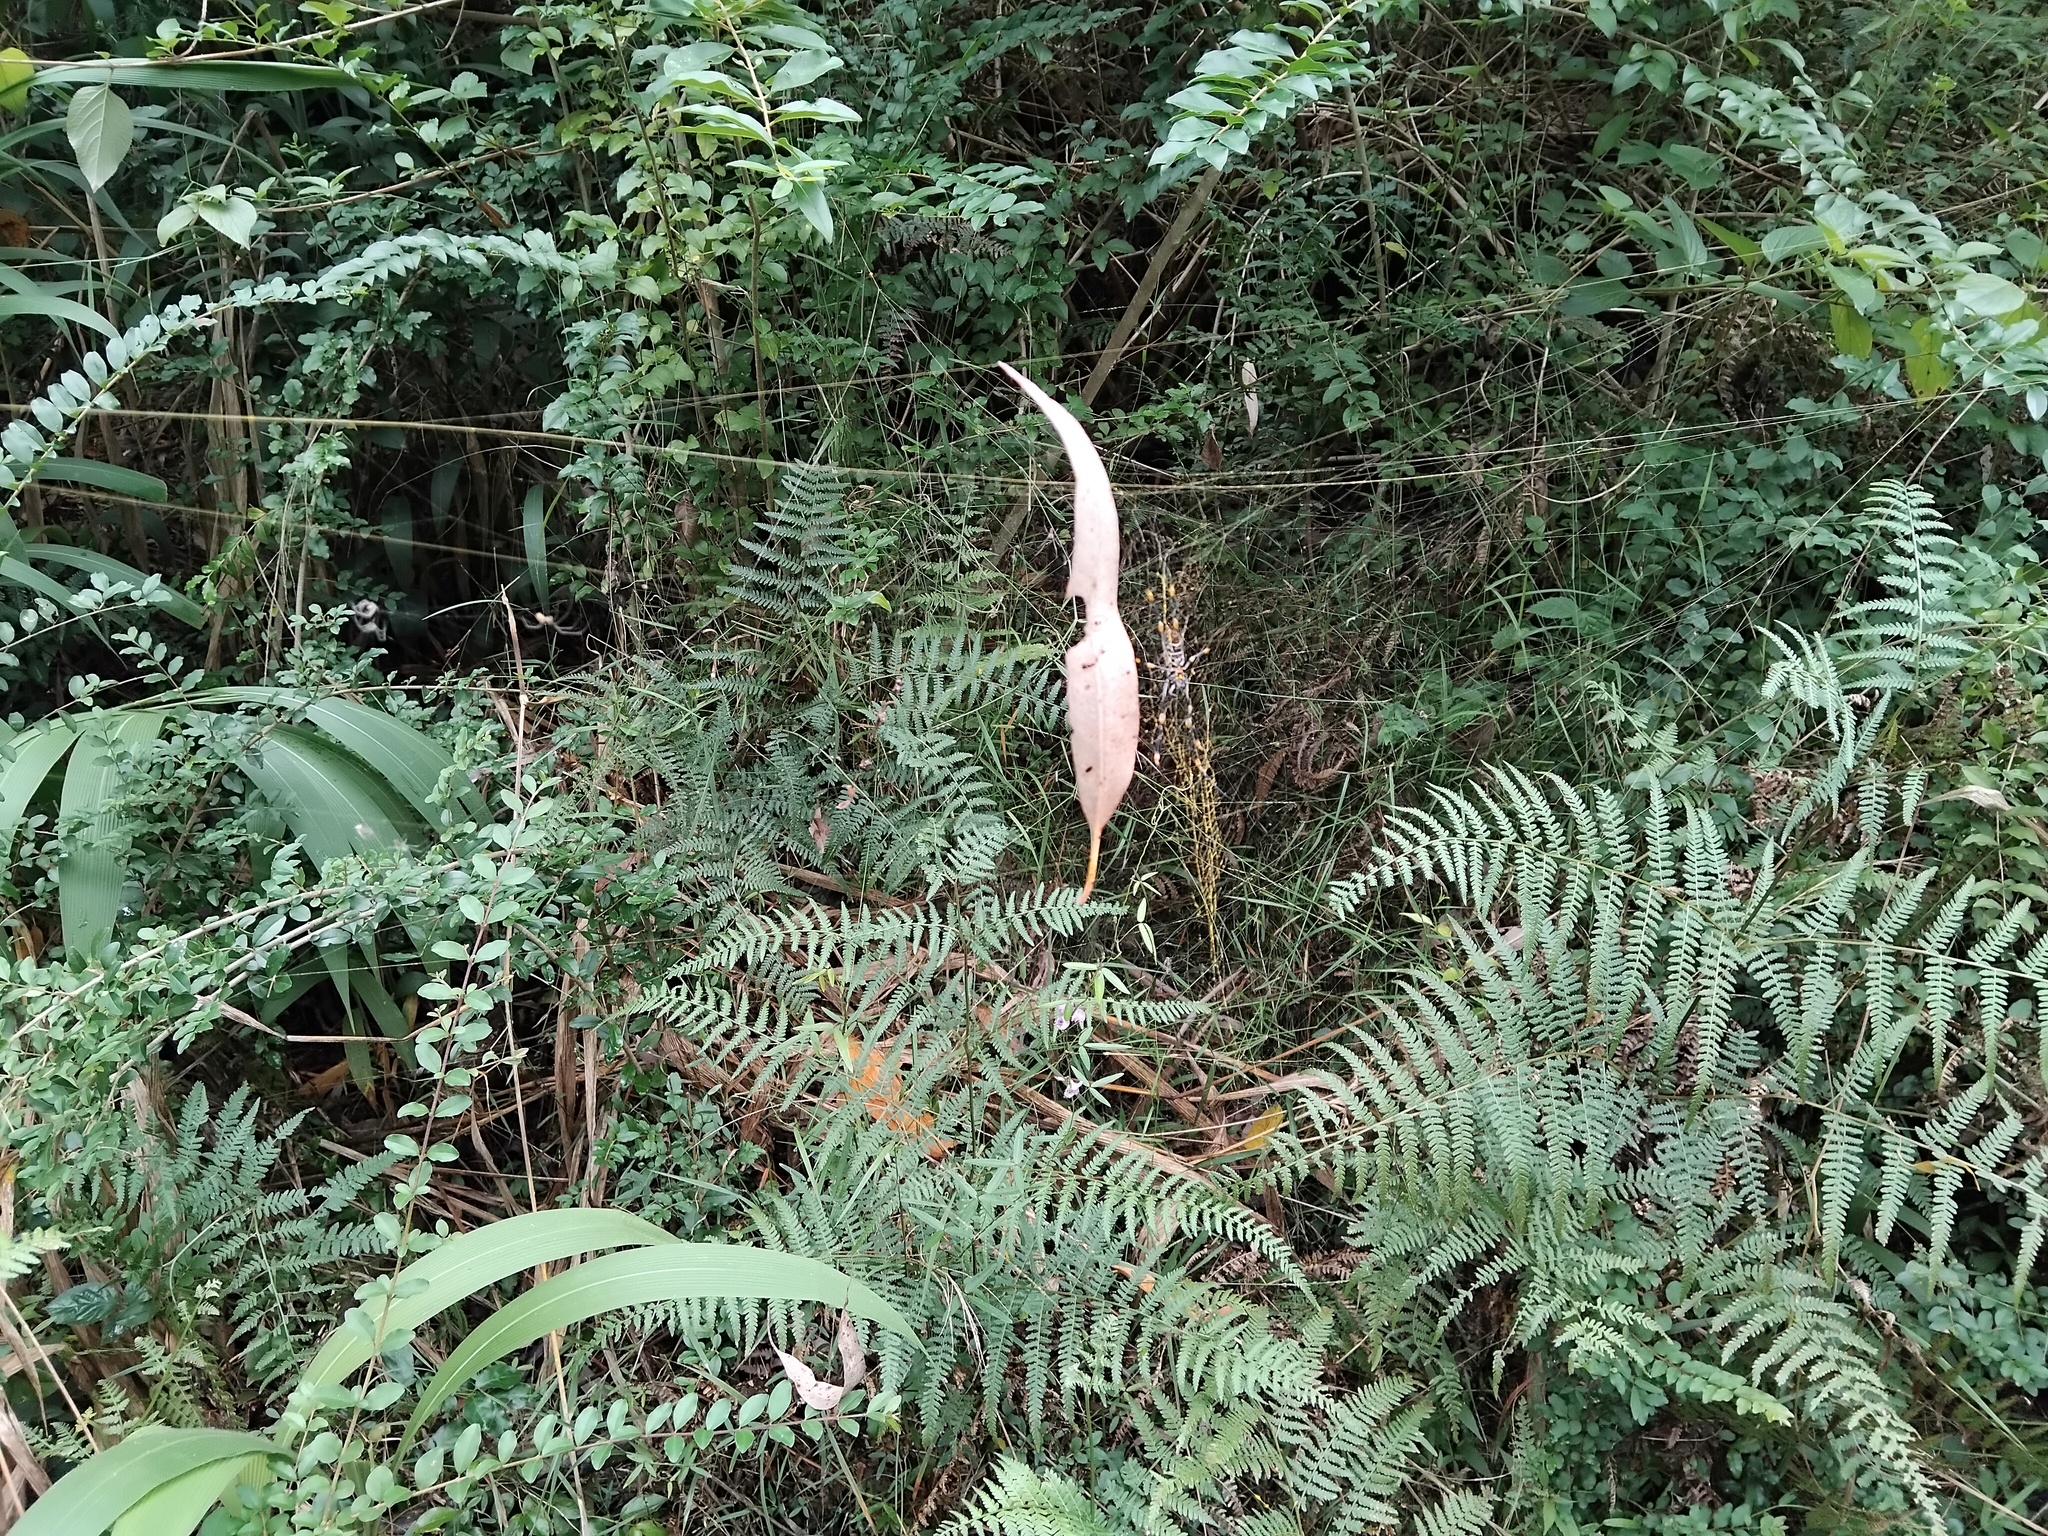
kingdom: Animalia
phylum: Arthropoda
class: Arachnida
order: Araneae
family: Tetragnathidae
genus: Leucauge
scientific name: Leucauge dromedaria
